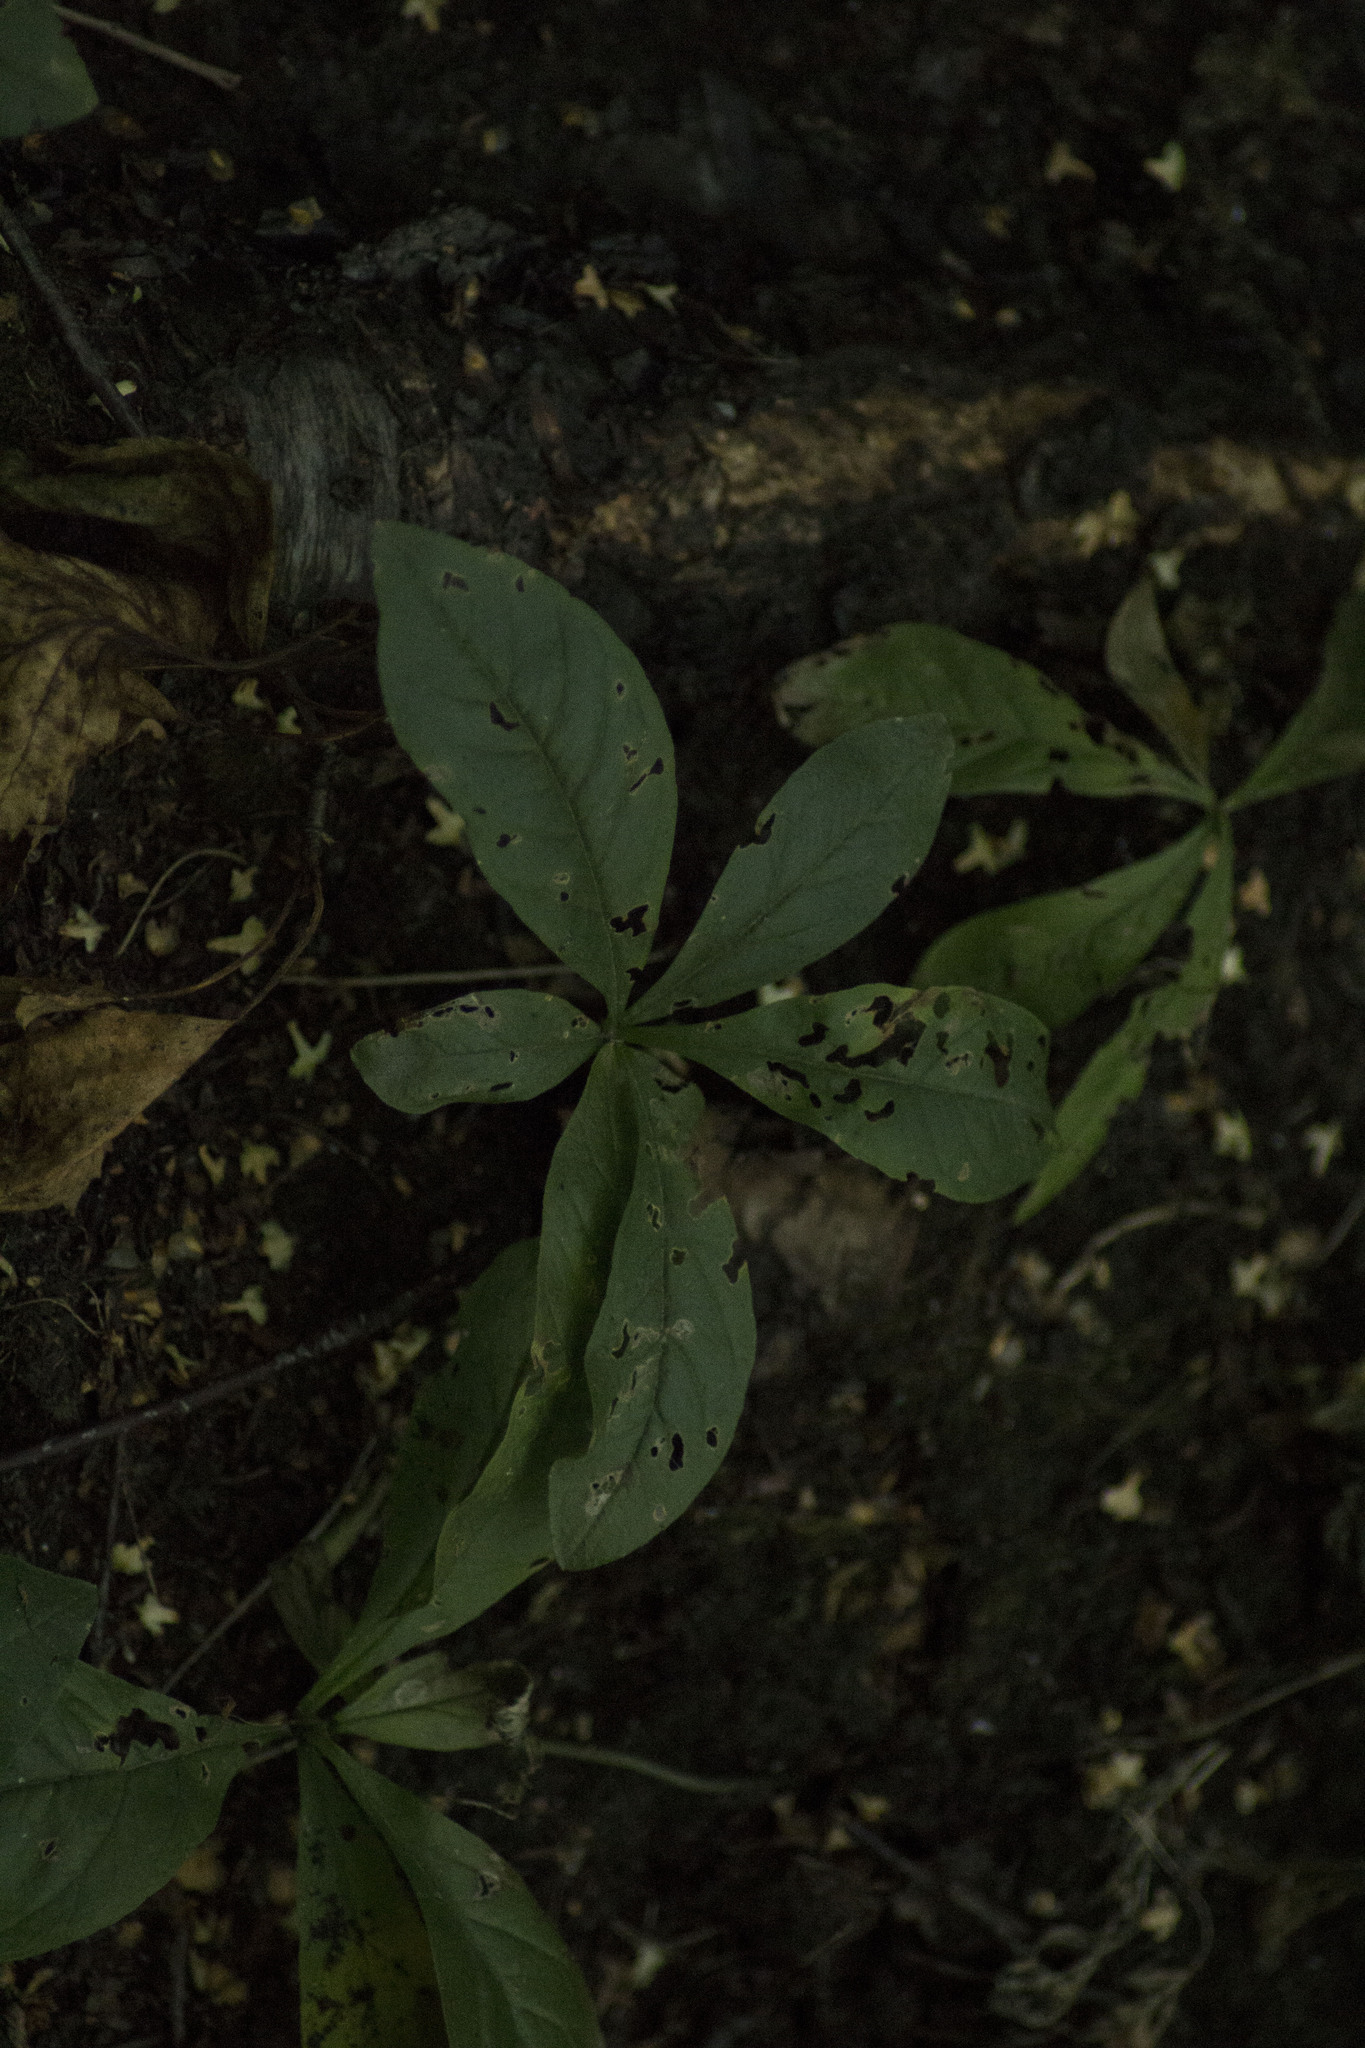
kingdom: Plantae
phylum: Tracheophyta
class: Magnoliopsida
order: Ericales
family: Primulaceae
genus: Lysimachia
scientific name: Lysimachia europaea
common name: Arctic starflower
